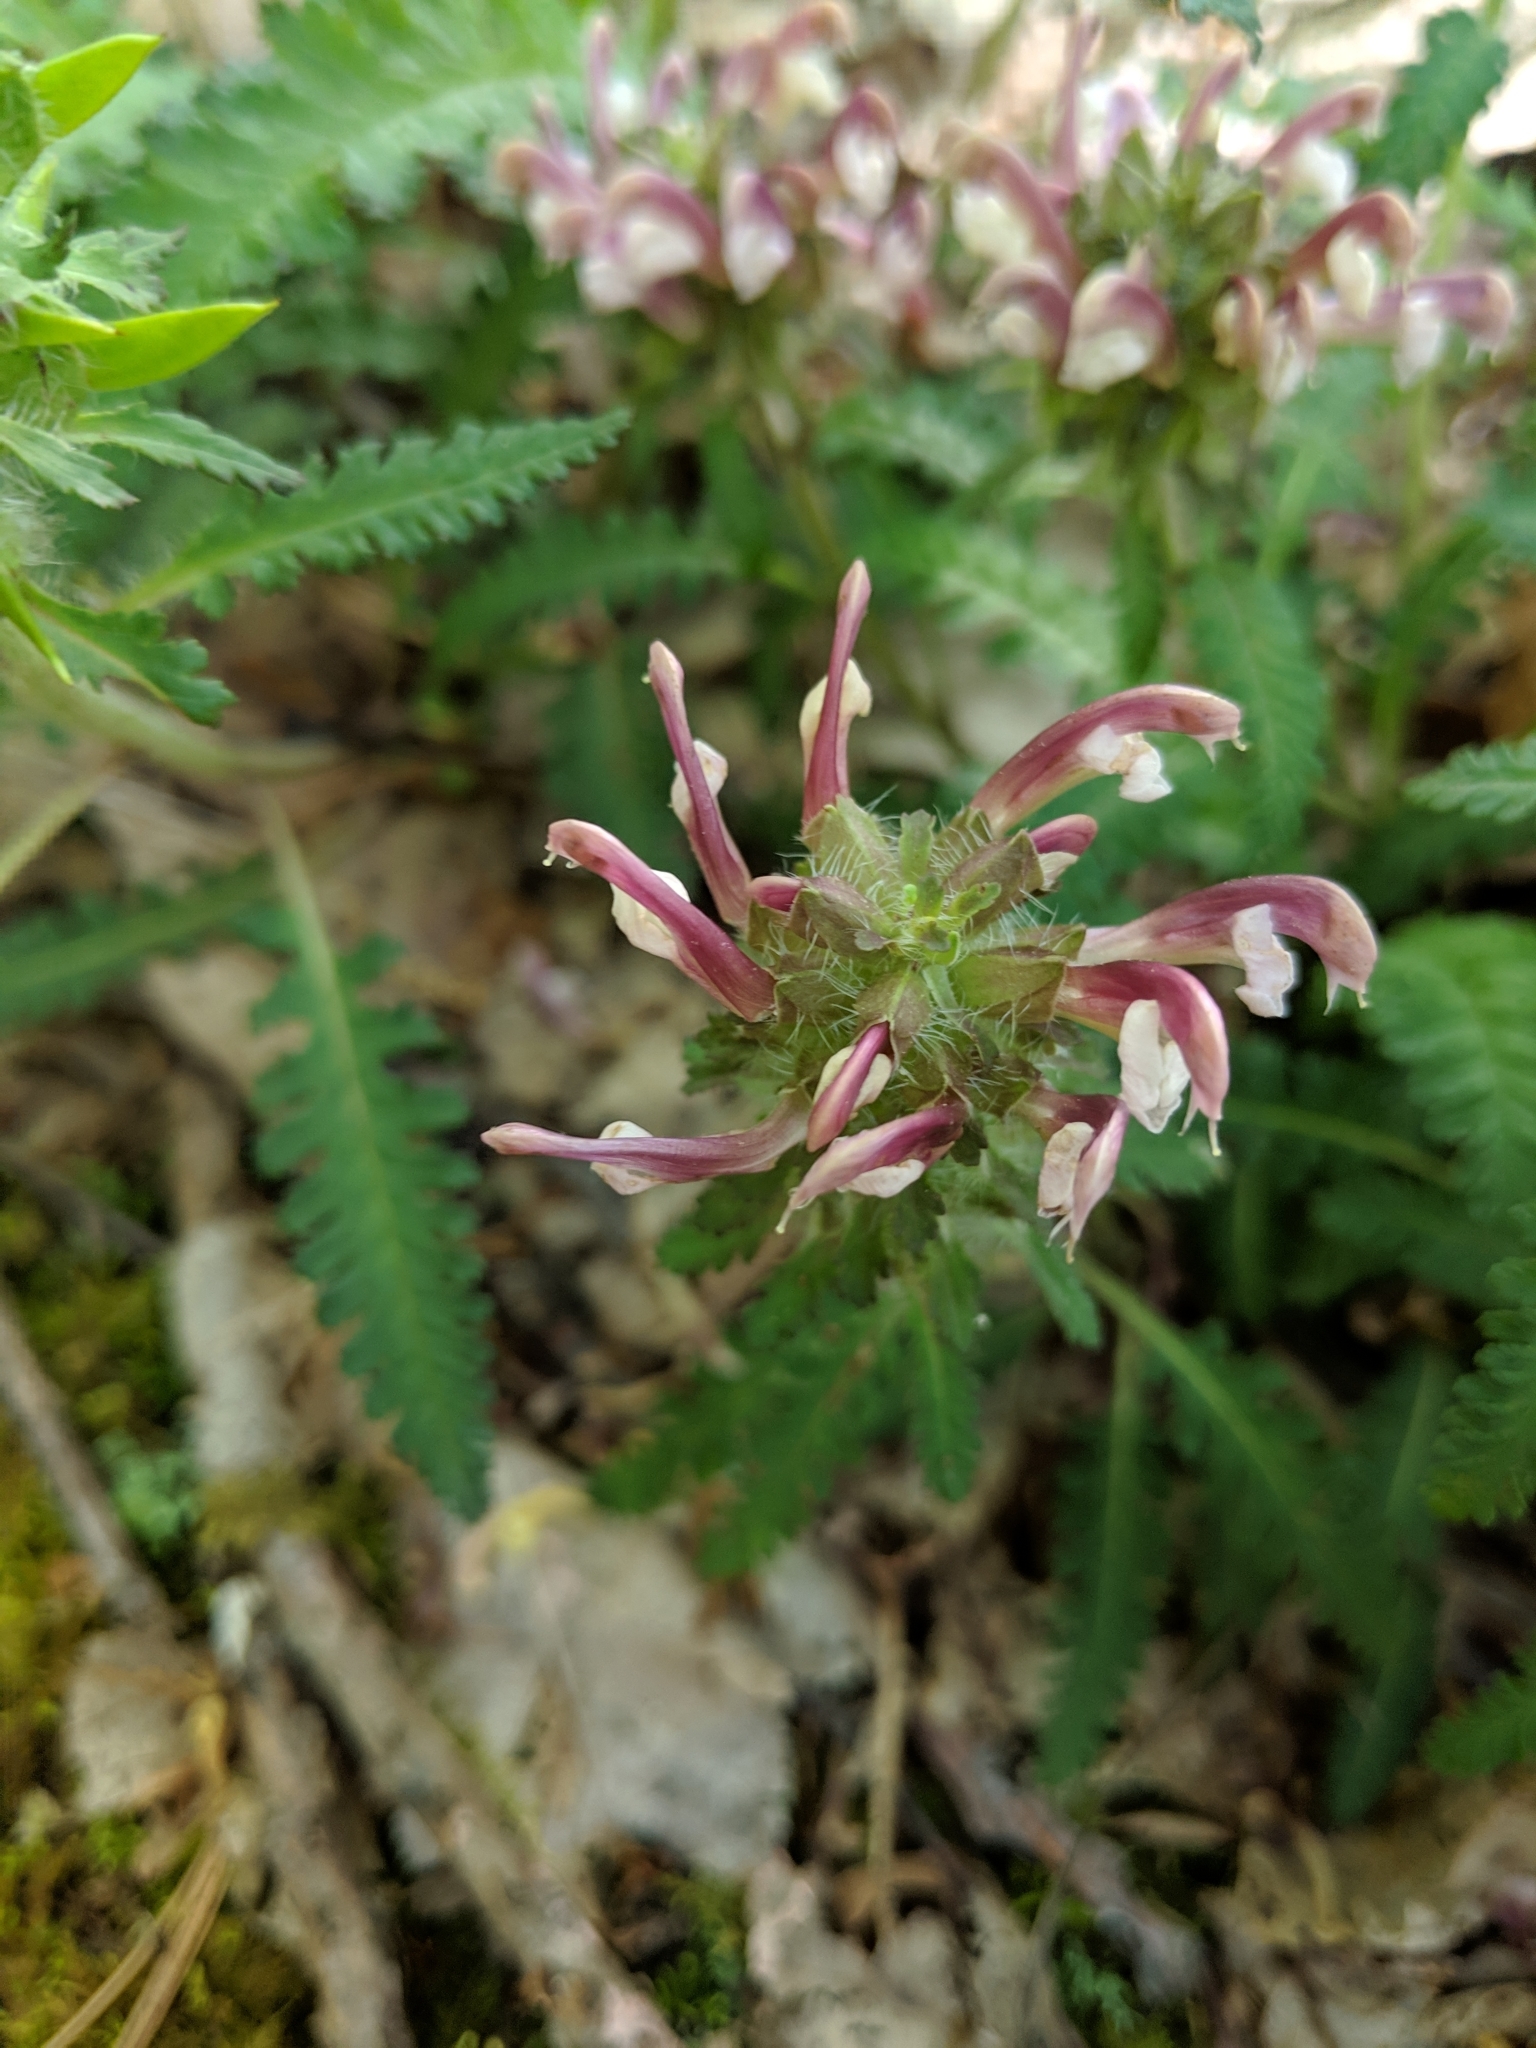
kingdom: Plantae
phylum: Tracheophyta
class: Magnoliopsida
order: Lamiales
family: Orobanchaceae
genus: Pedicularis
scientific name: Pedicularis canadensis
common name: Early lousewort
